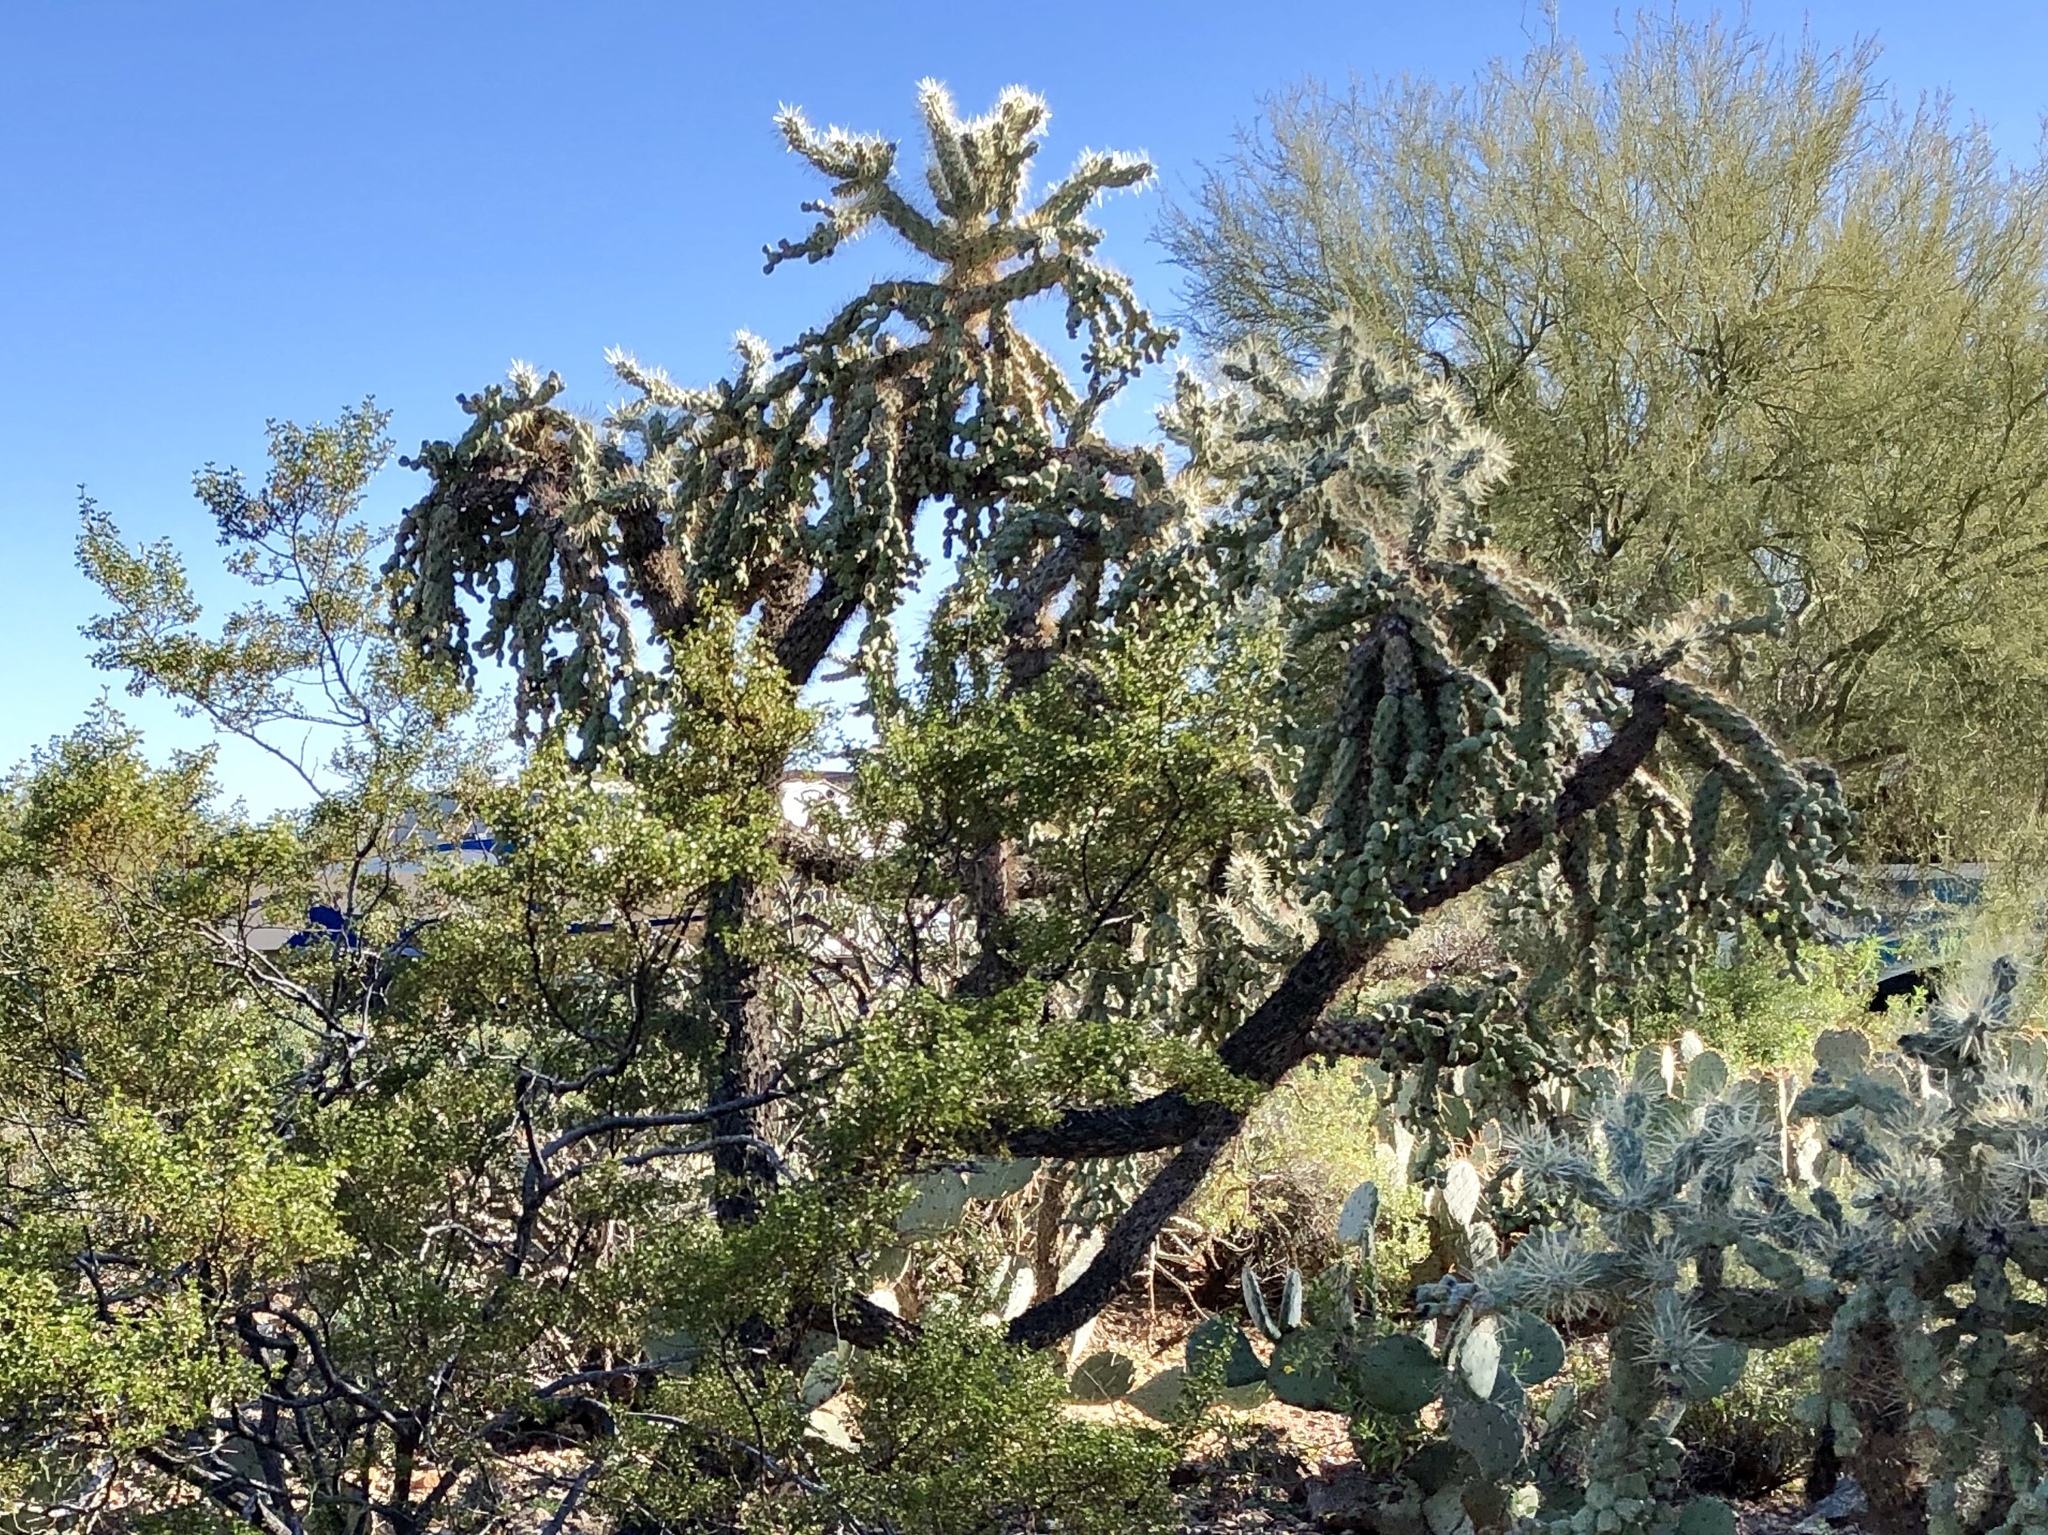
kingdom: Plantae
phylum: Tracheophyta
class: Magnoliopsida
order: Caryophyllales
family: Cactaceae
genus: Cylindropuntia
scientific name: Cylindropuntia fulgida
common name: Jumping cholla
